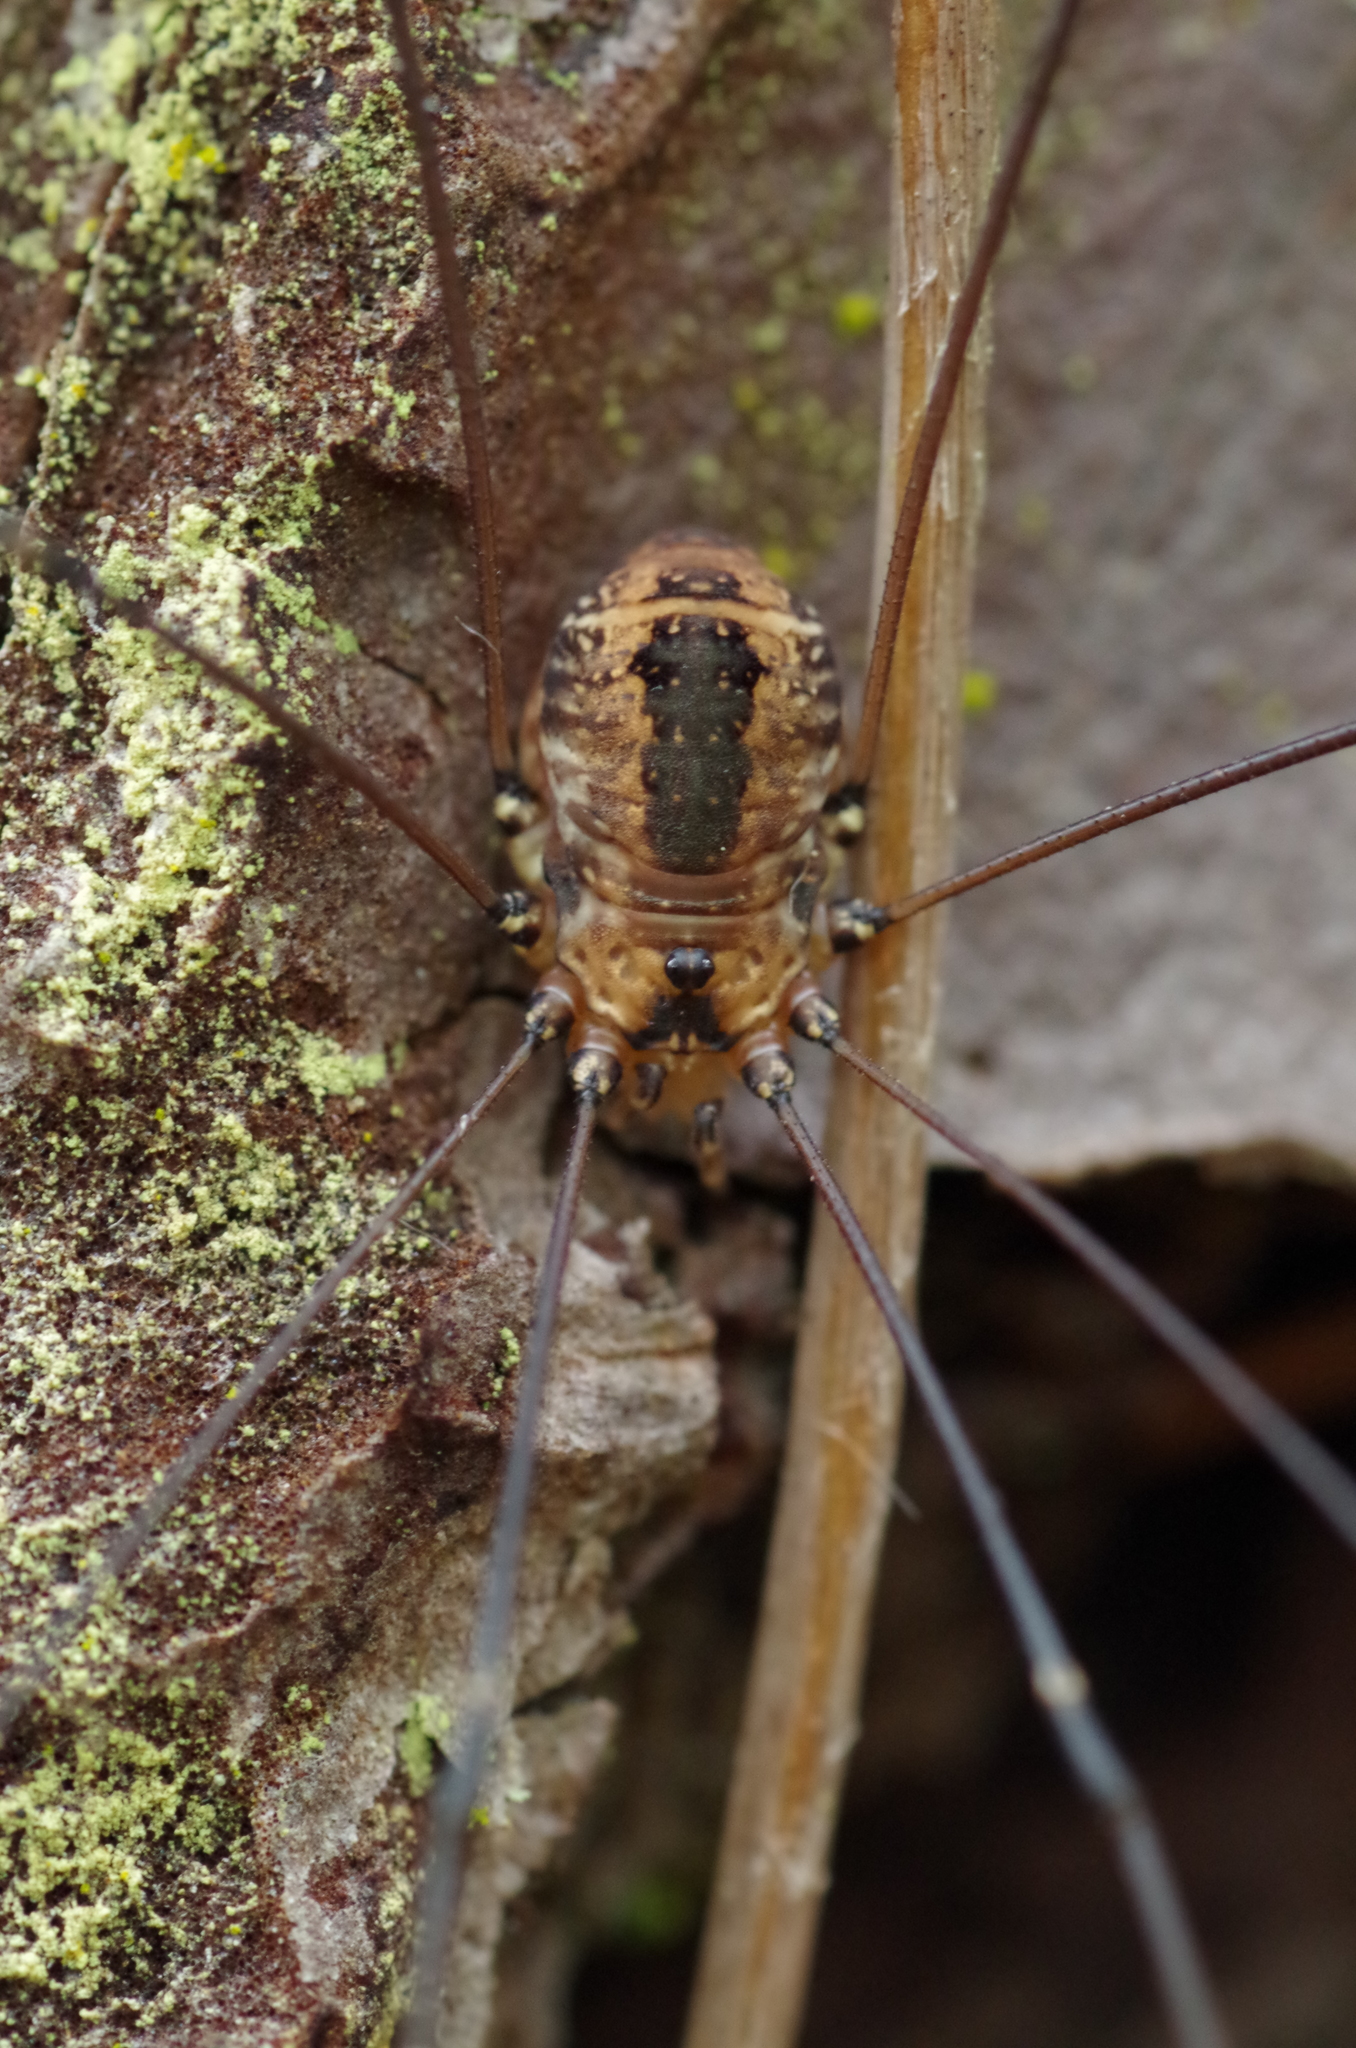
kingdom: Animalia
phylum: Arthropoda
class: Arachnida
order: Opiliones
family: Sclerosomatidae
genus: Leiobunum
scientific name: Leiobunum rotundum
